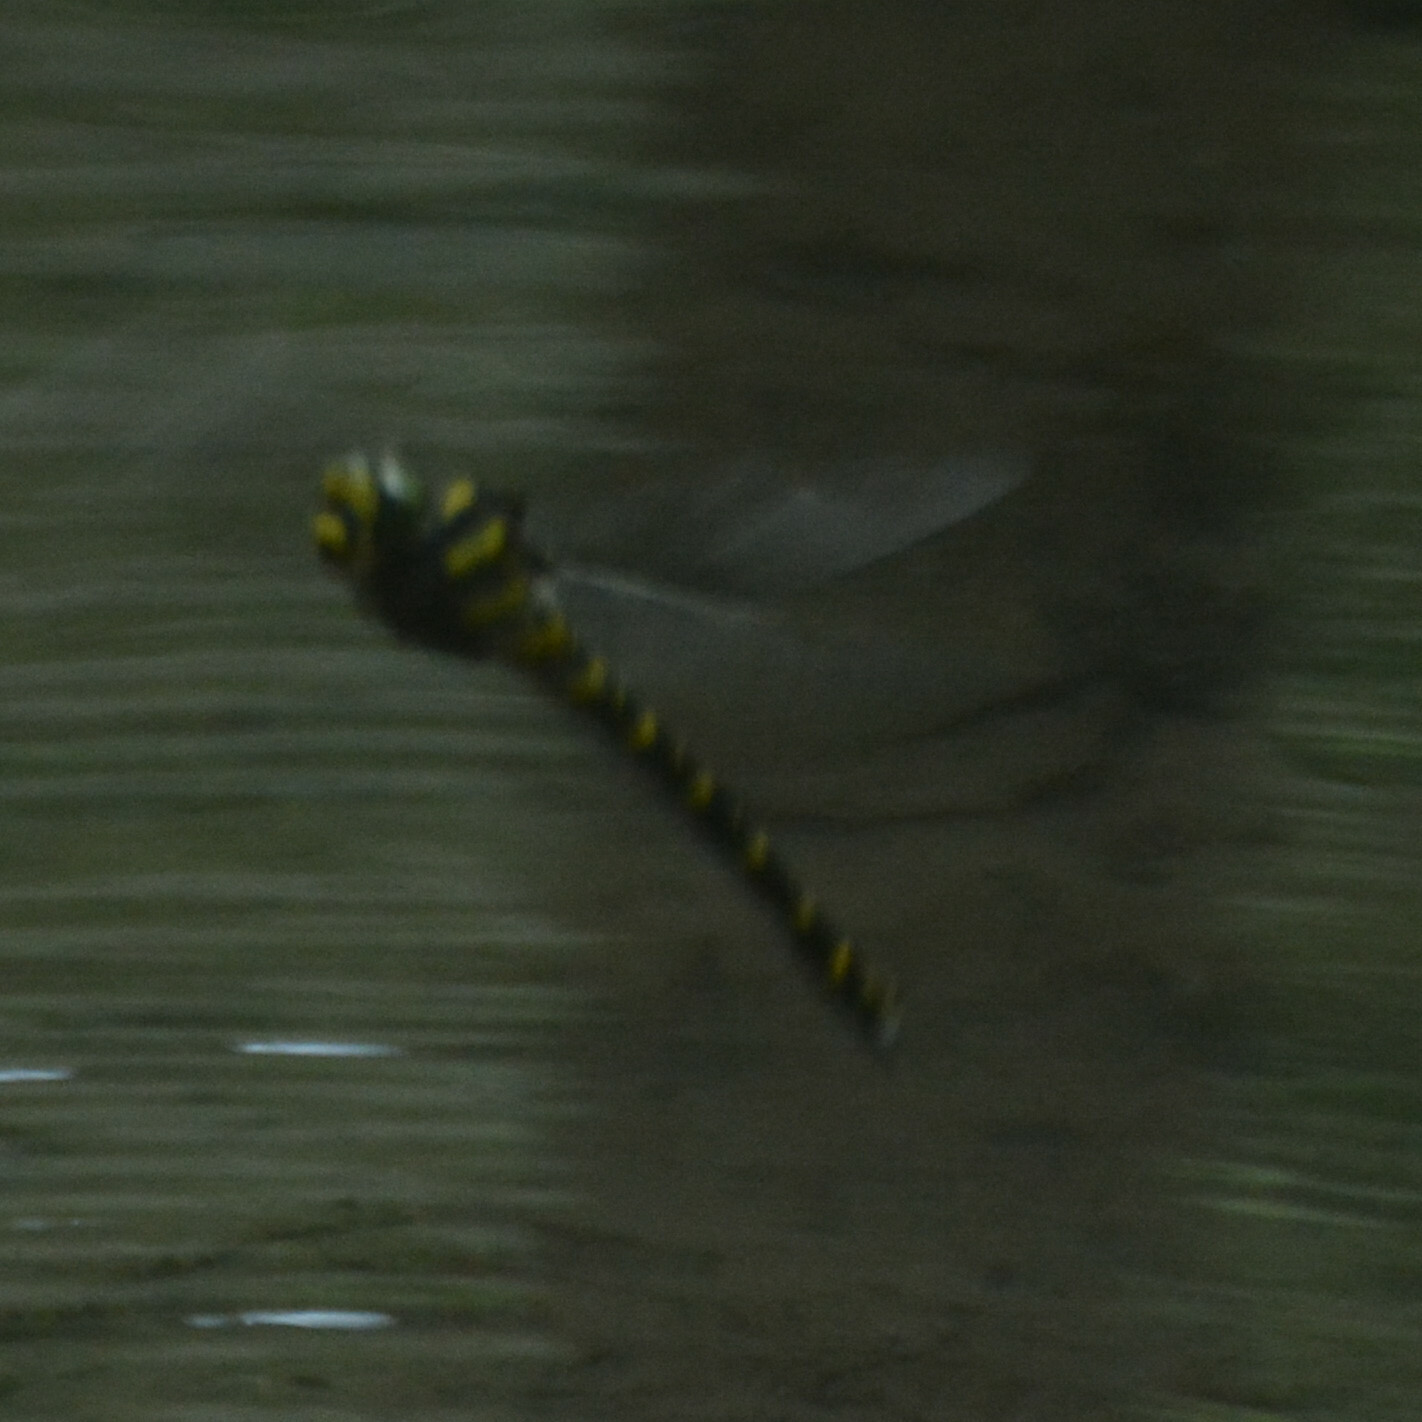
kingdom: Animalia
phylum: Arthropoda
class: Insecta
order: Odonata
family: Cordulegastridae
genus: Cordulegaster
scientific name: Cordulegaster boltonii
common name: Golden-ringed dragonfly
